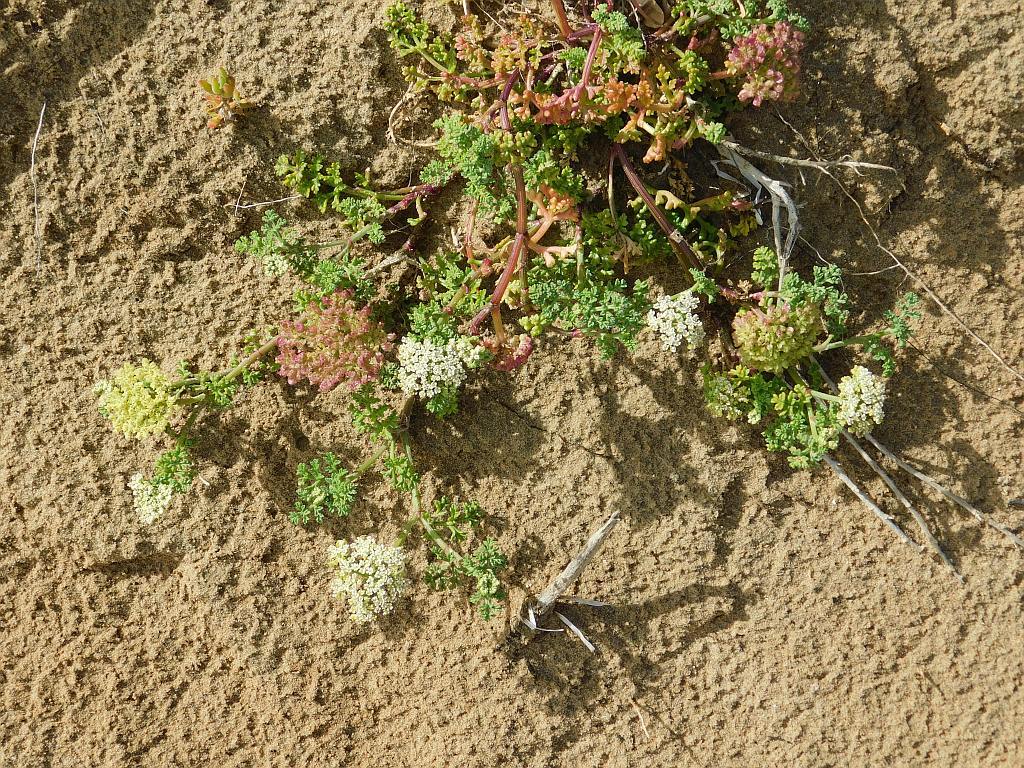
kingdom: Plantae
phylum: Tracheophyta
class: Magnoliopsida
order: Apiales
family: Apiaceae
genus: Dasispermum
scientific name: Dasispermum suffruticosum
